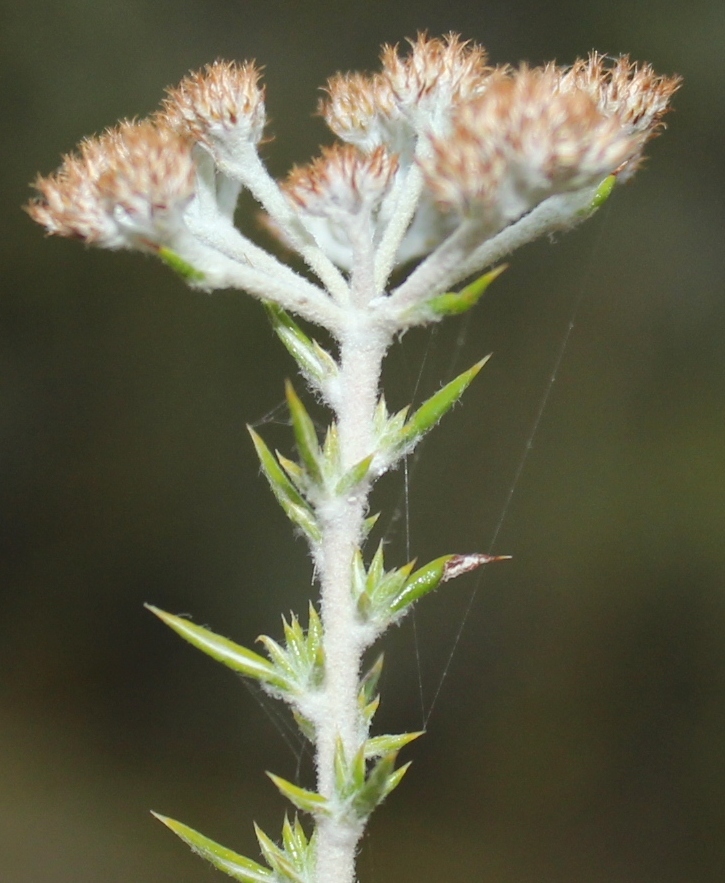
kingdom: Plantae
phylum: Tracheophyta
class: Magnoliopsida
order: Asterales
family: Asteraceae
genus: Metalasia
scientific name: Metalasia densa
